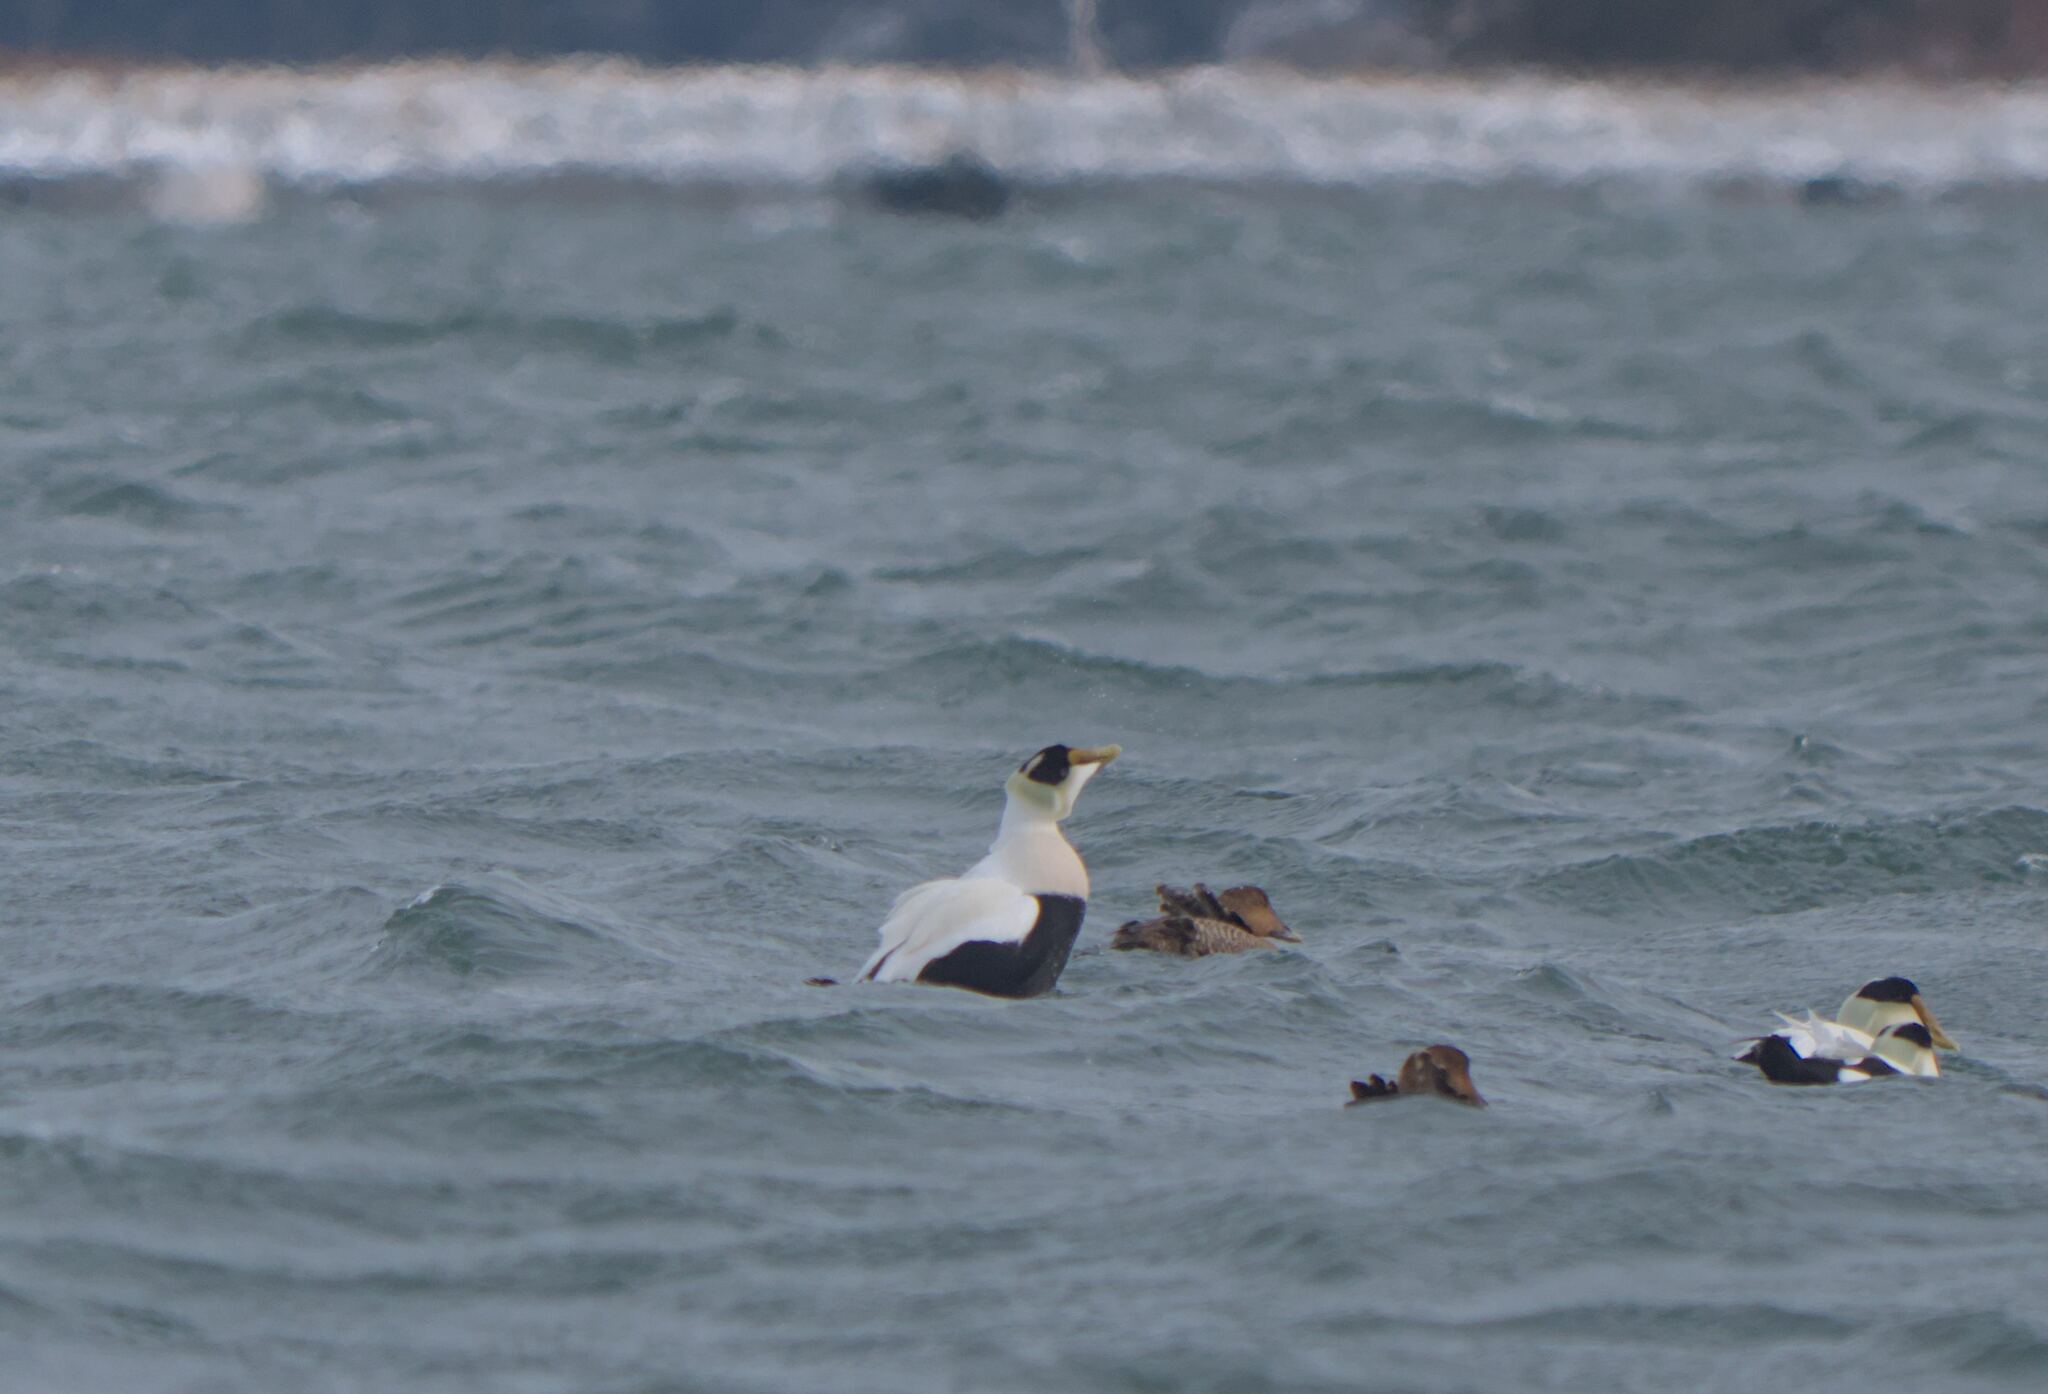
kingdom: Animalia
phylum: Chordata
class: Aves
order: Anseriformes
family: Anatidae
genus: Somateria
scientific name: Somateria mollissima
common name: Common eider
